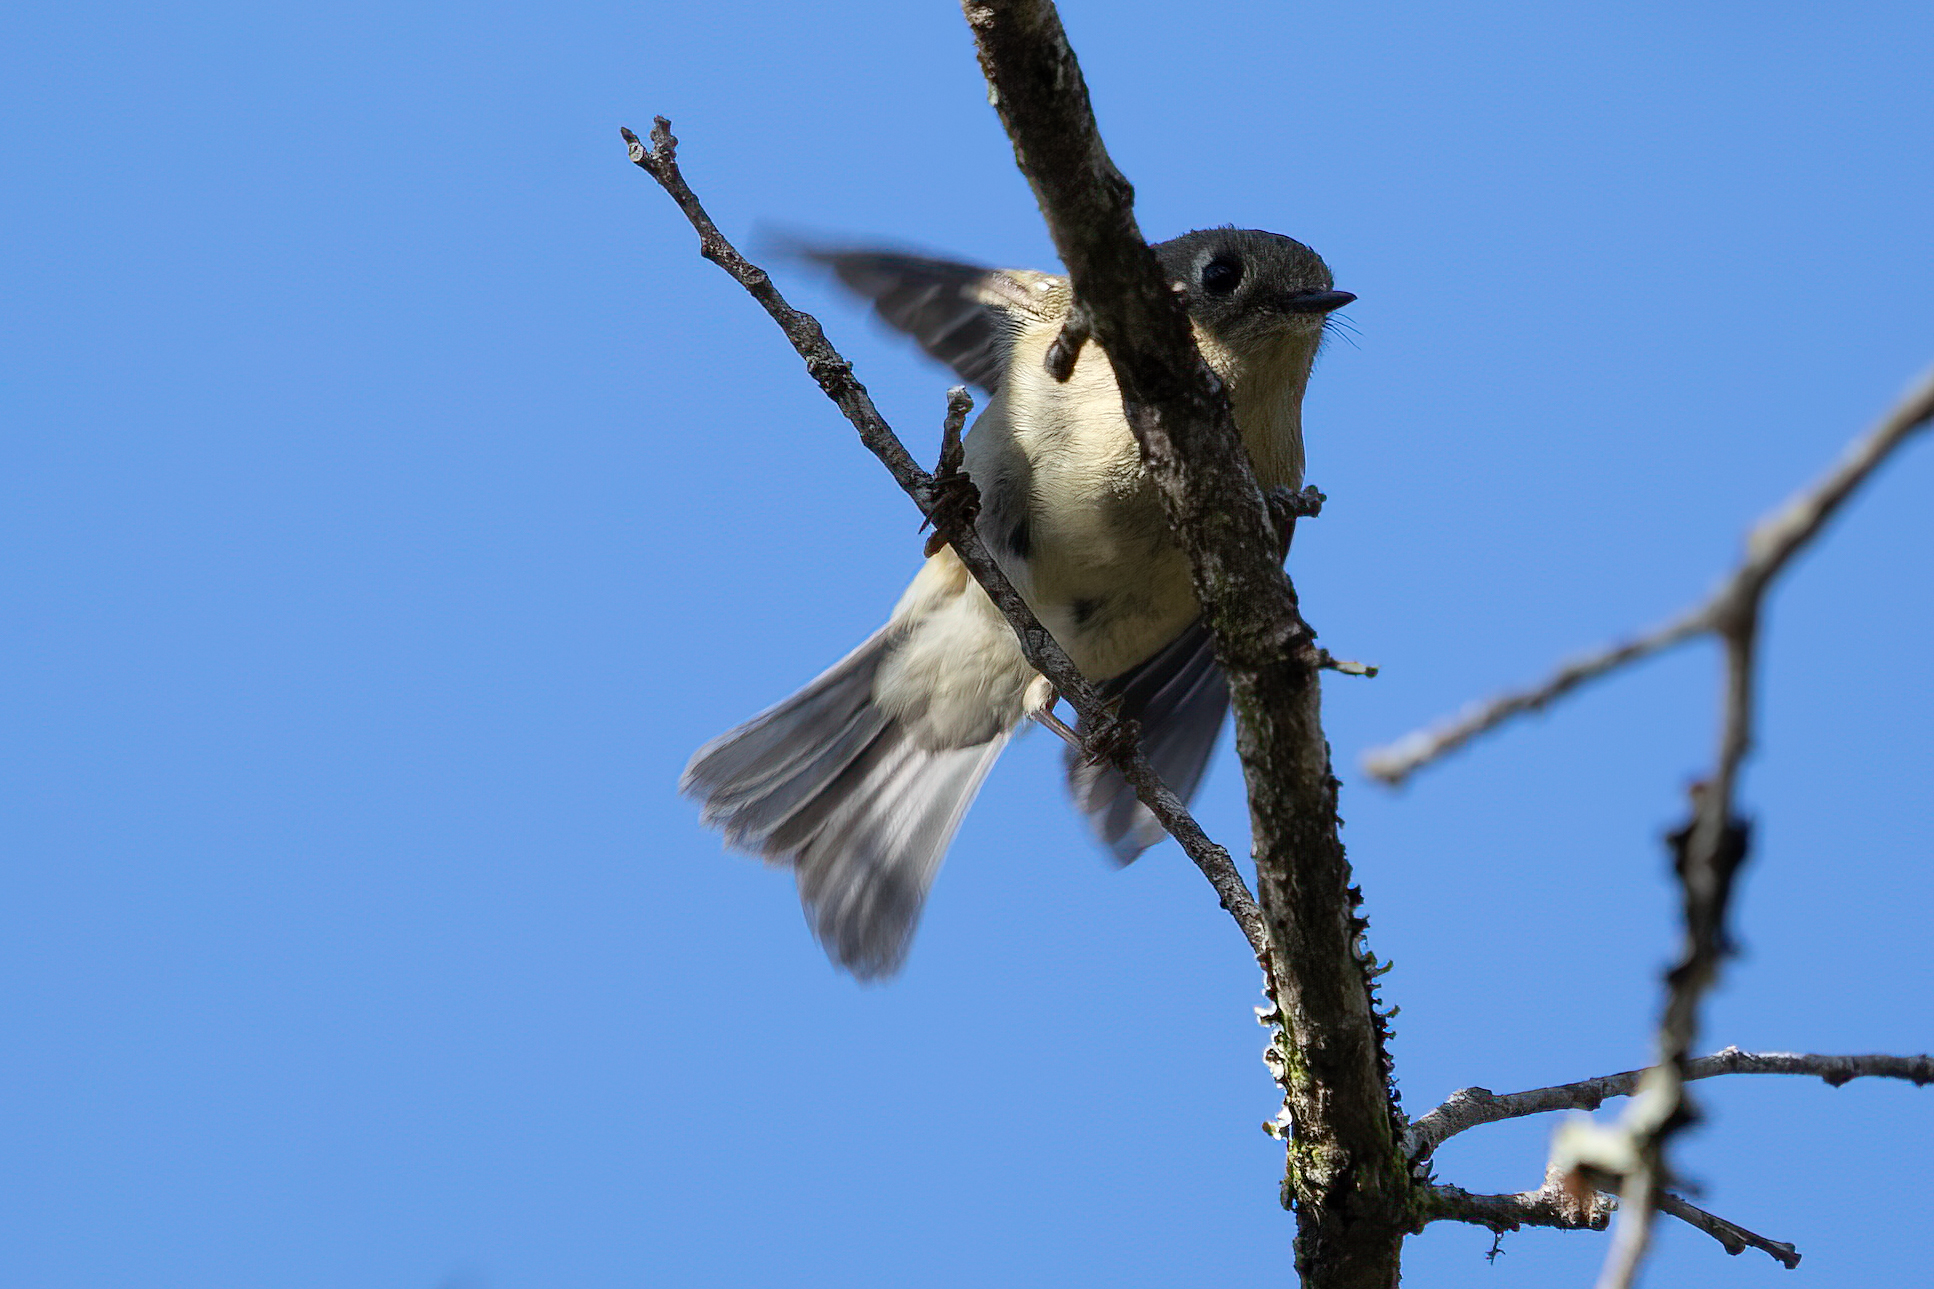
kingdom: Animalia
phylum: Chordata
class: Aves
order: Passeriformes
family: Regulidae
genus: Regulus
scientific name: Regulus calendula
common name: Ruby-crowned kinglet
